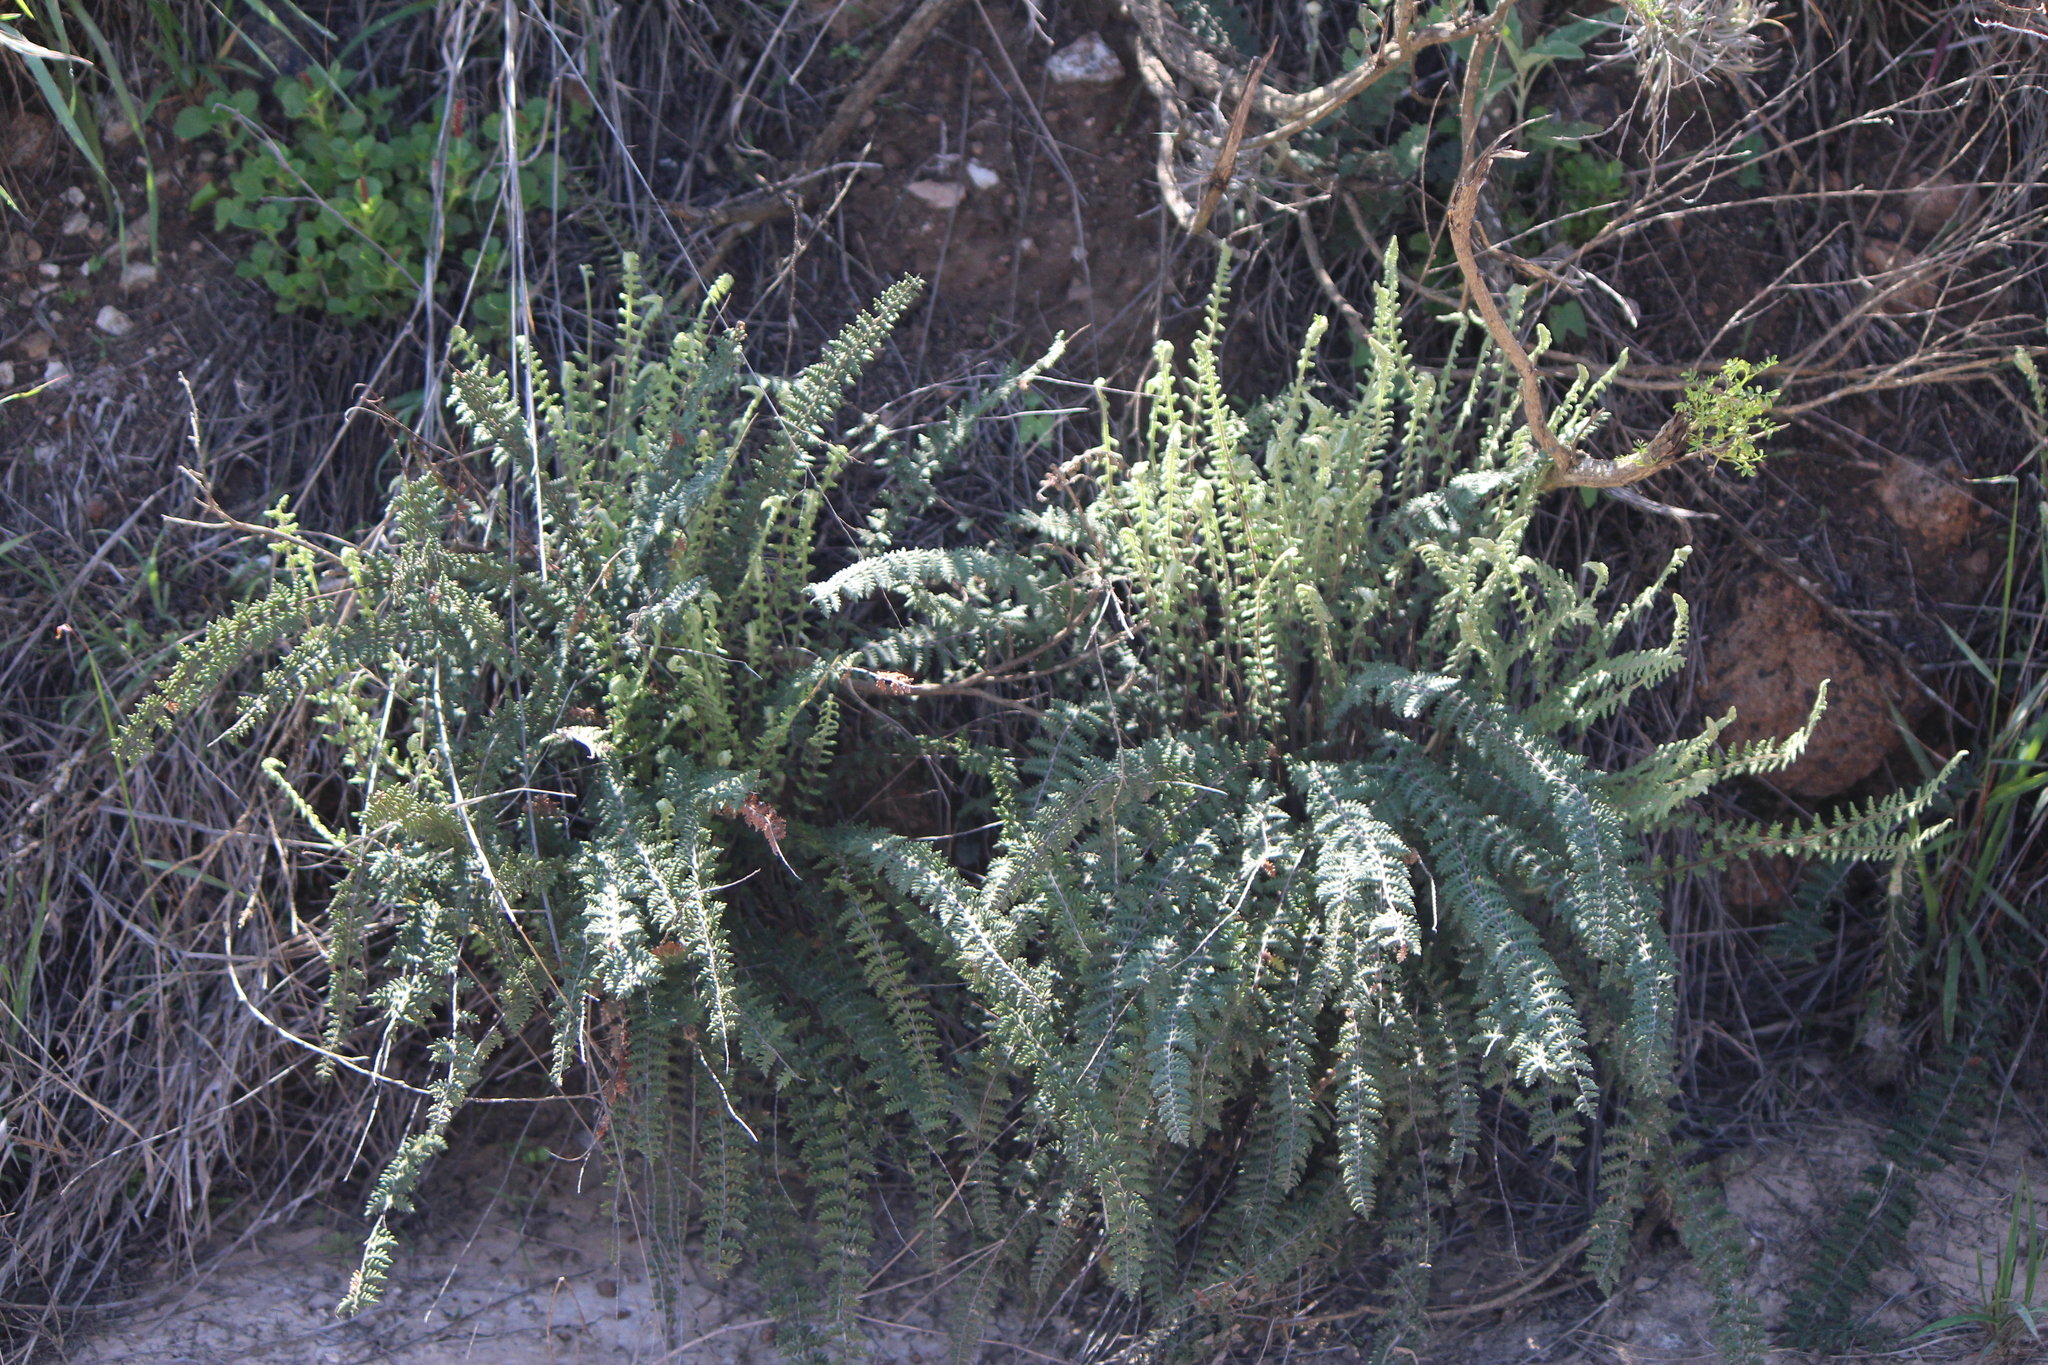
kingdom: Plantae
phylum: Tracheophyta
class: Polypodiopsida
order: Polypodiales
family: Pteridaceae
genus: Myriopteris
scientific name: Myriopteris aurea
